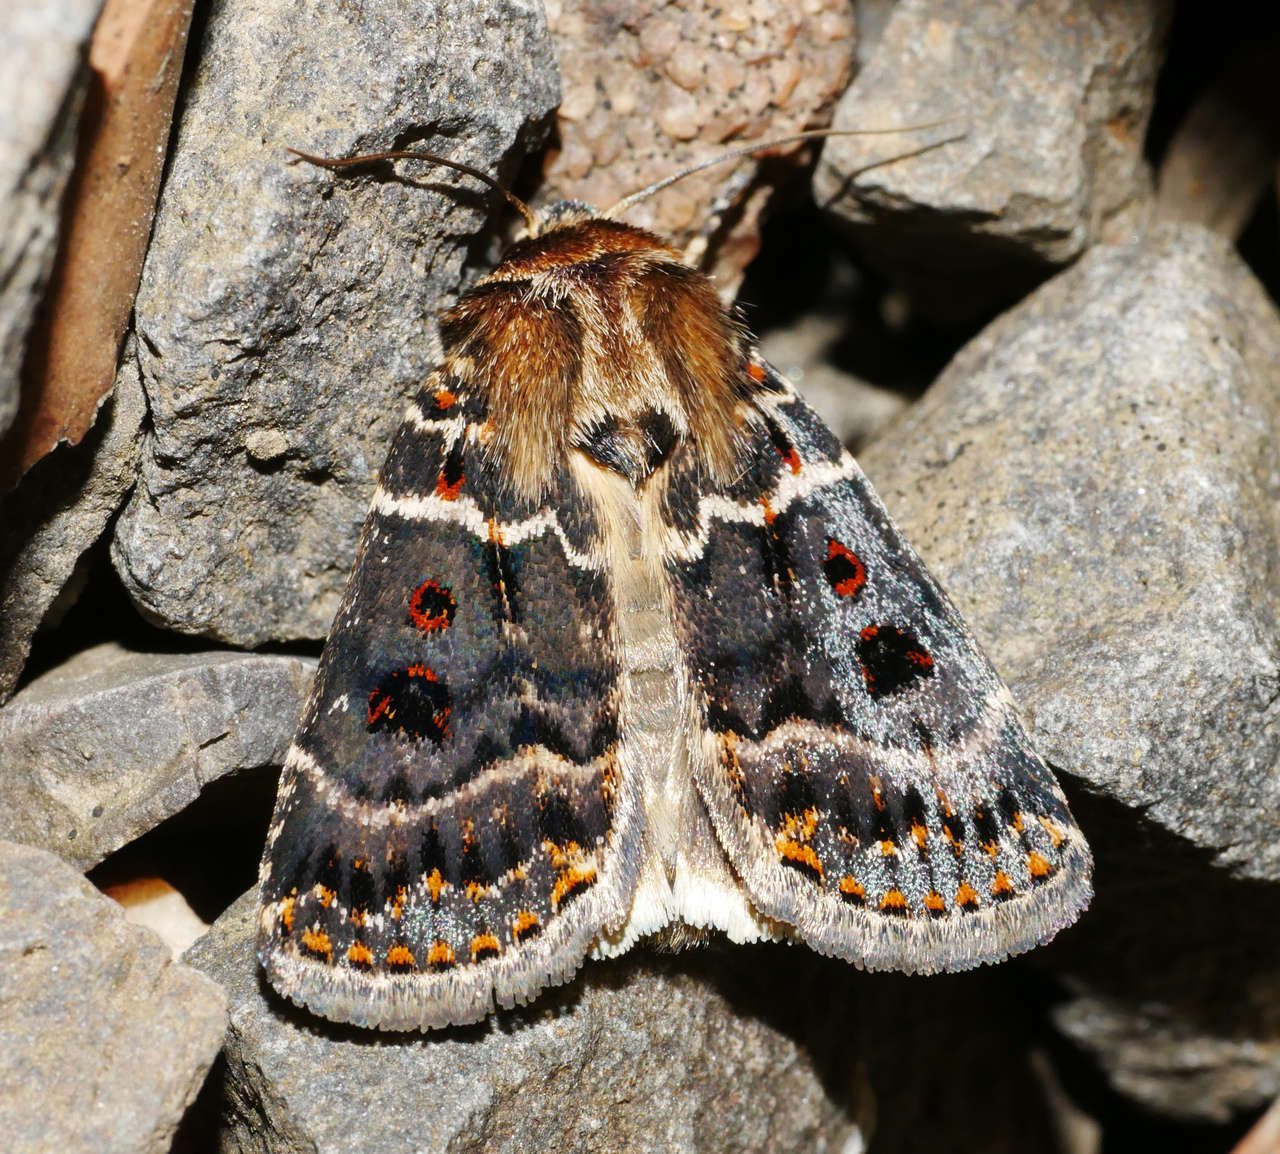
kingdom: Animalia
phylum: Arthropoda
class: Insecta
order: Lepidoptera
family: Noctuidae
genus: Proteuxoa
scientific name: Proteuxoa sanguinipuncta
